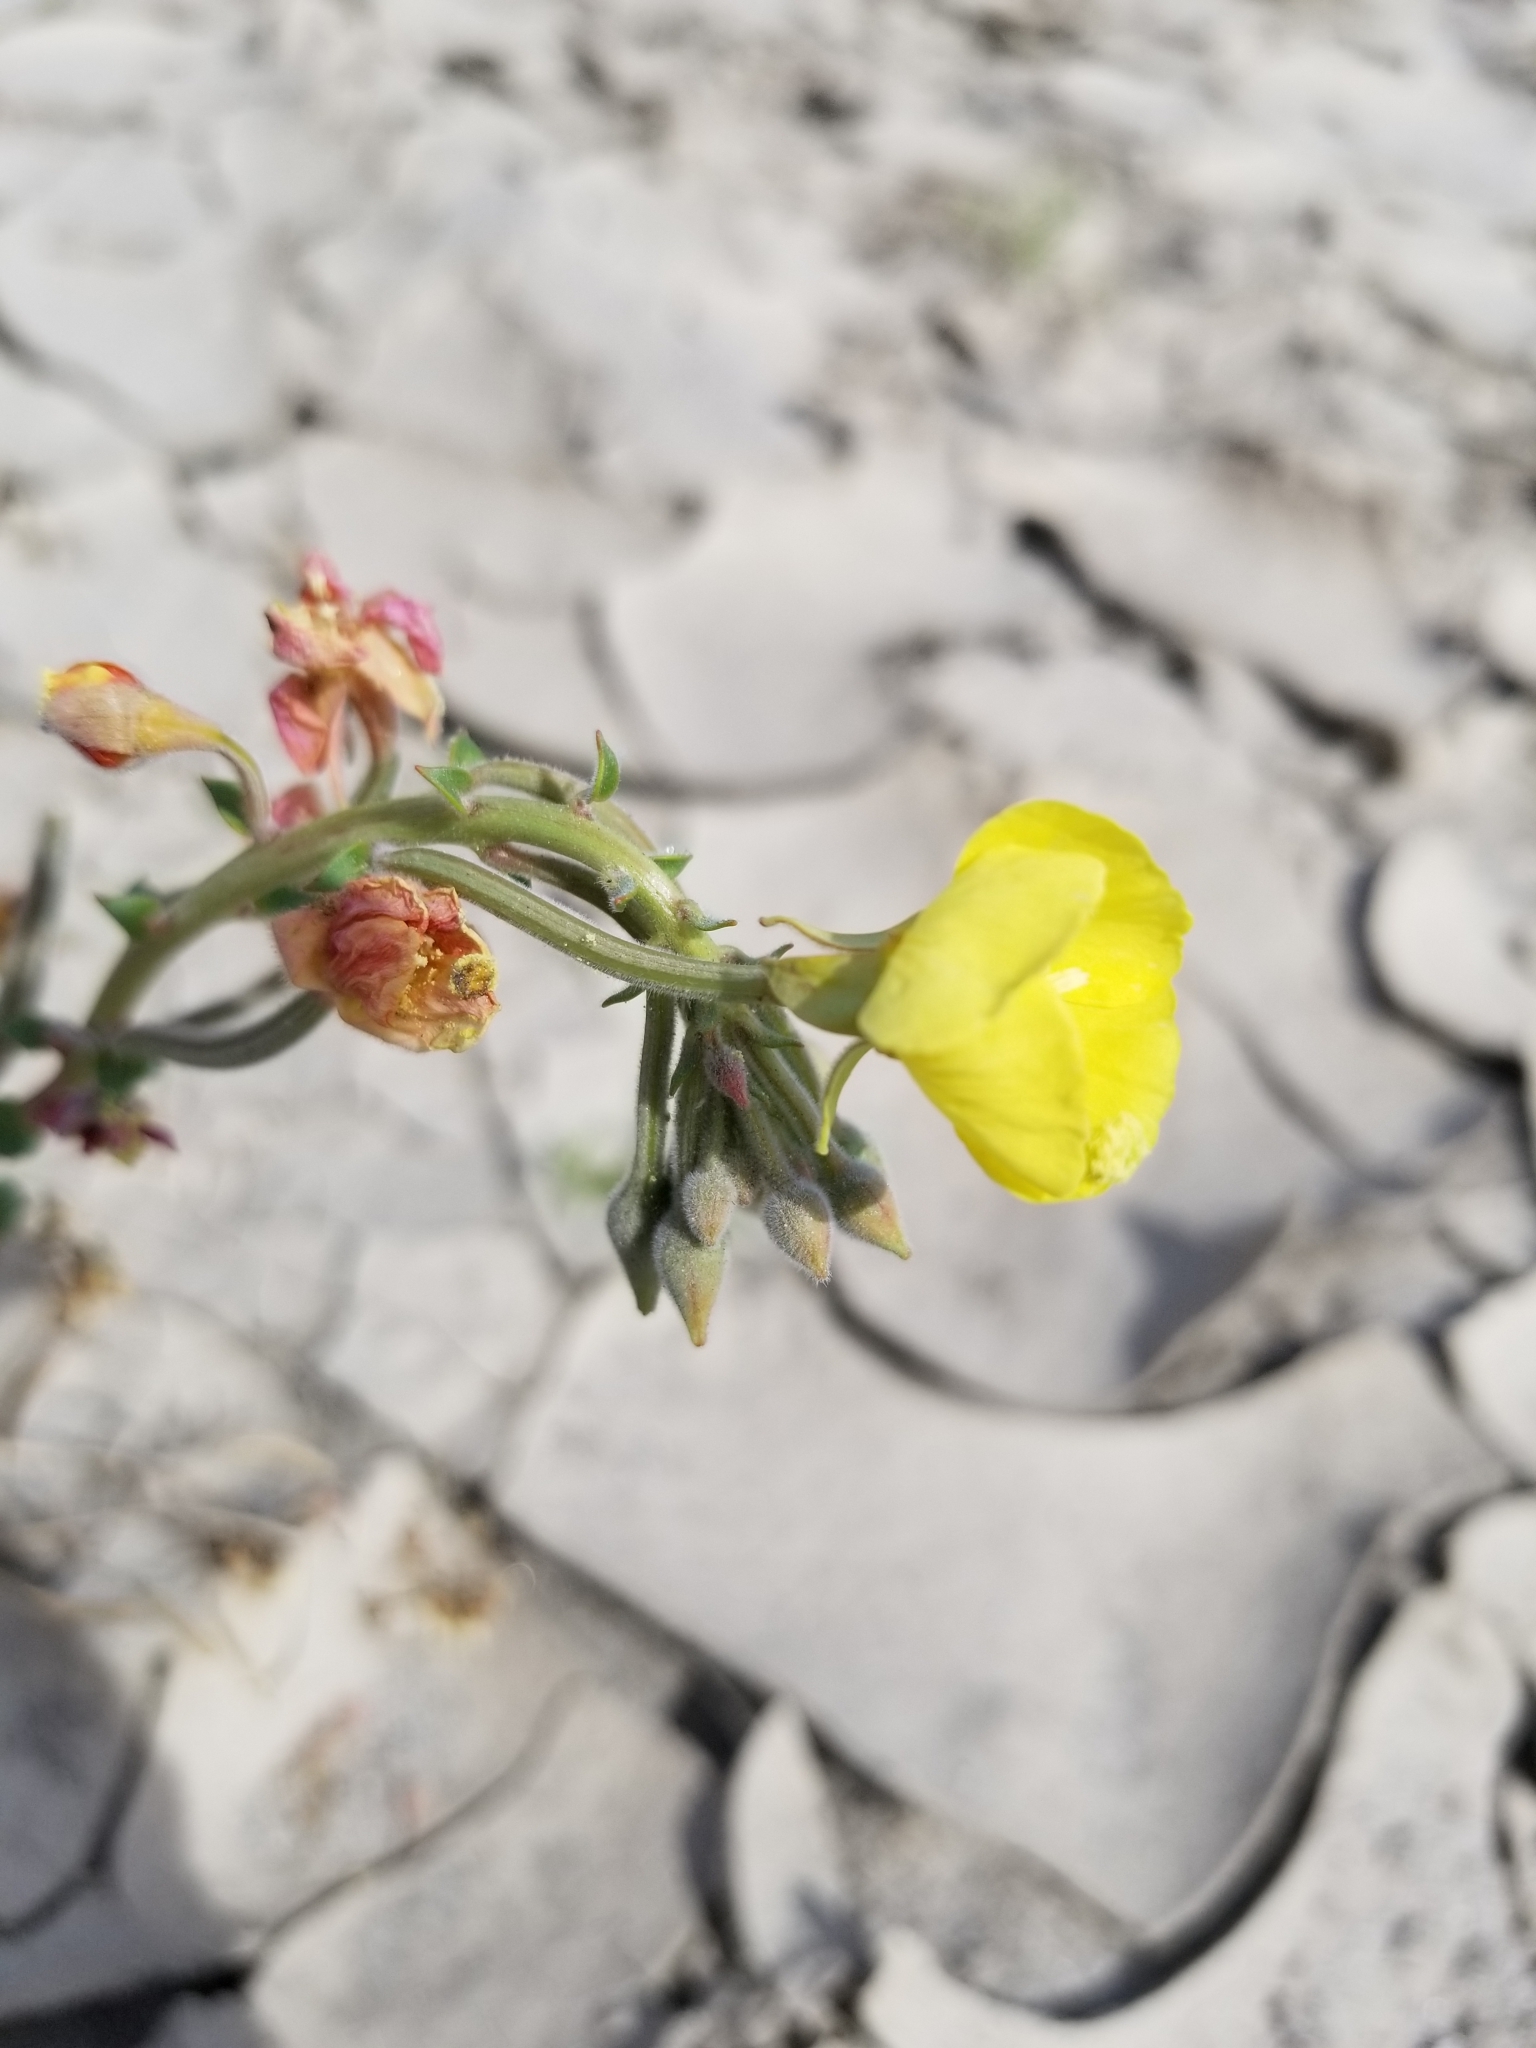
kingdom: Plantae
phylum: Tracheophyta
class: Magnoliopsida
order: Myrtales
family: Onagraceae
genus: Chylismia
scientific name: Chylismia cardiophylla
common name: Heartleaf suncup
